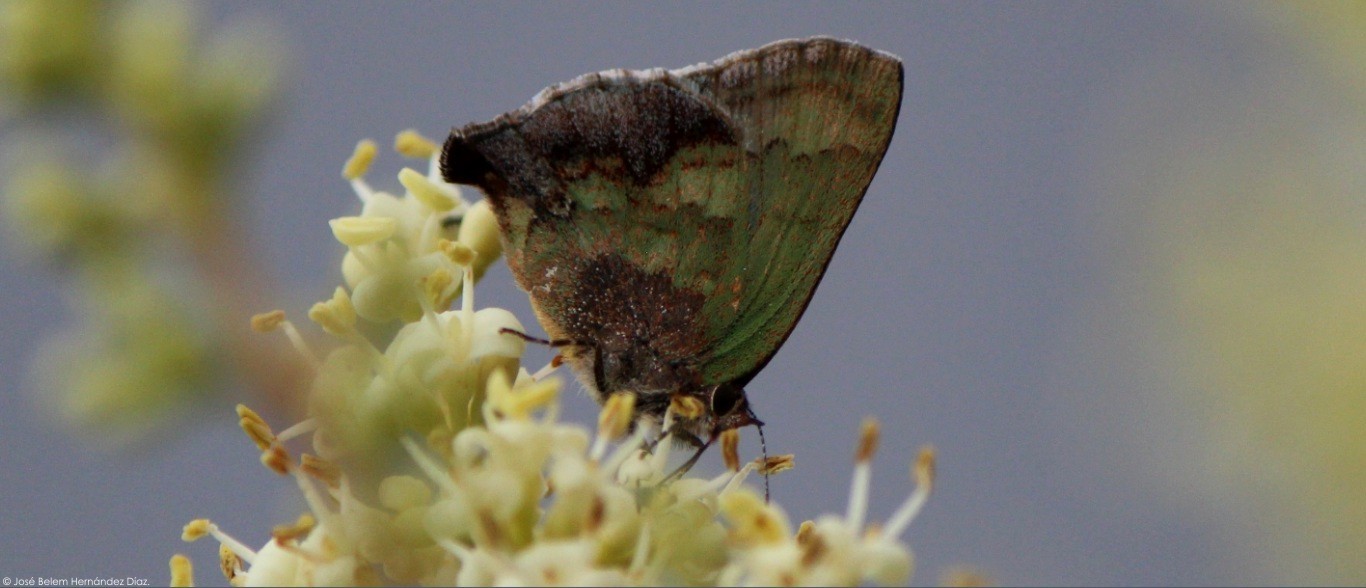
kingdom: Animalia
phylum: Arthropoda
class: Insecta
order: Lepidoptera
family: Lycaenidae
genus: Cyanophrys
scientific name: Cyanophrys agricolor
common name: Stained greenstreak
